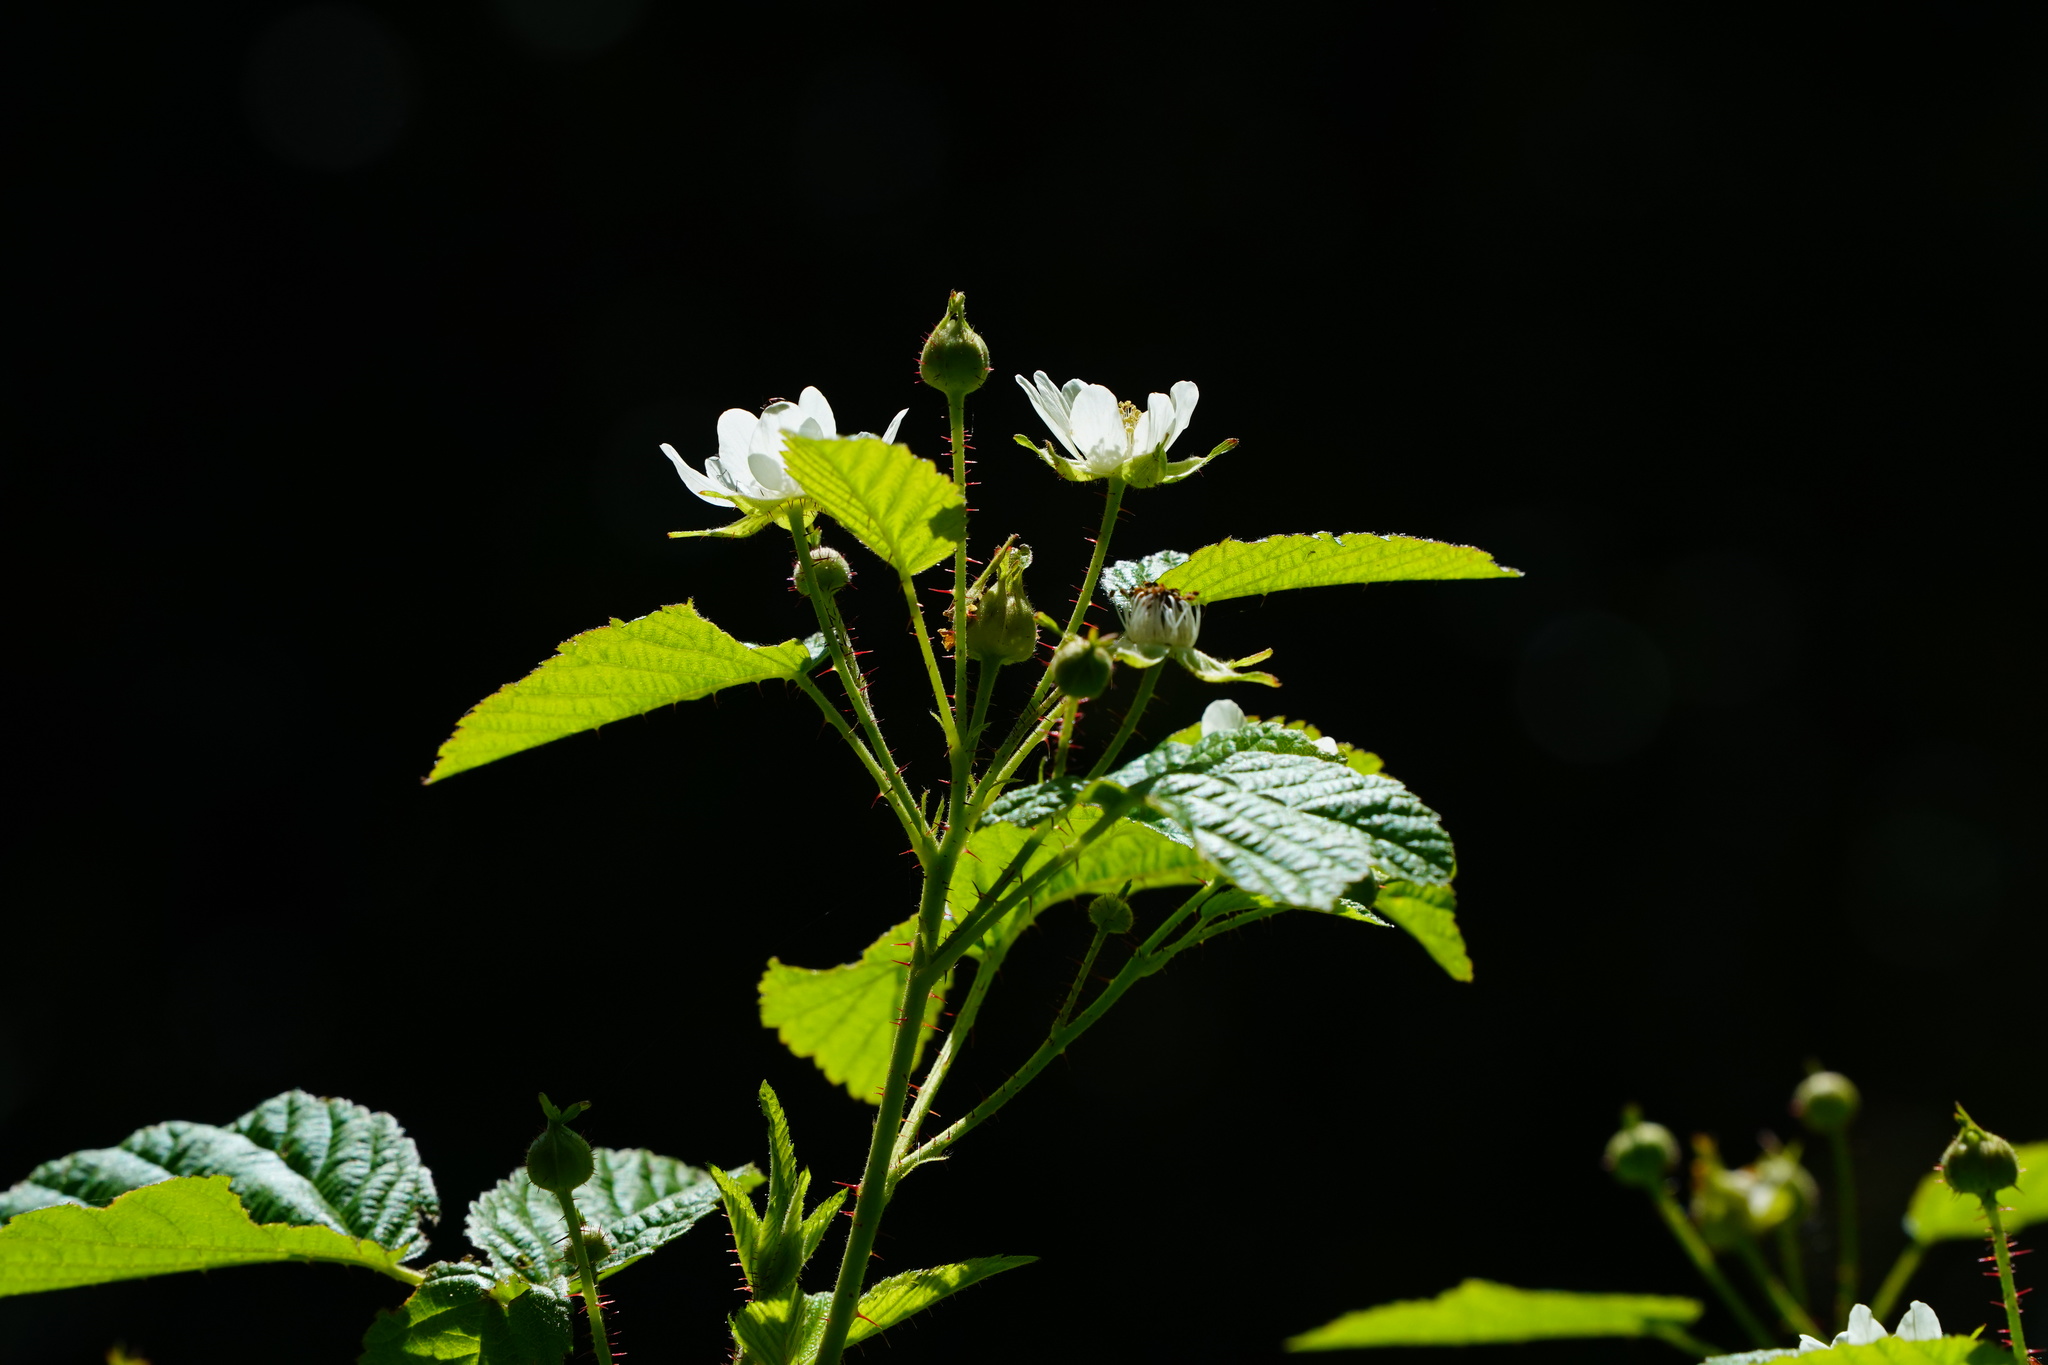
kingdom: Plantae
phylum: Tracheophyta
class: Magnoliopsida
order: Rosales
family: Rosaceae
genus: Rubus
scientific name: Rubus ursinus
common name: Pacific blackberry
